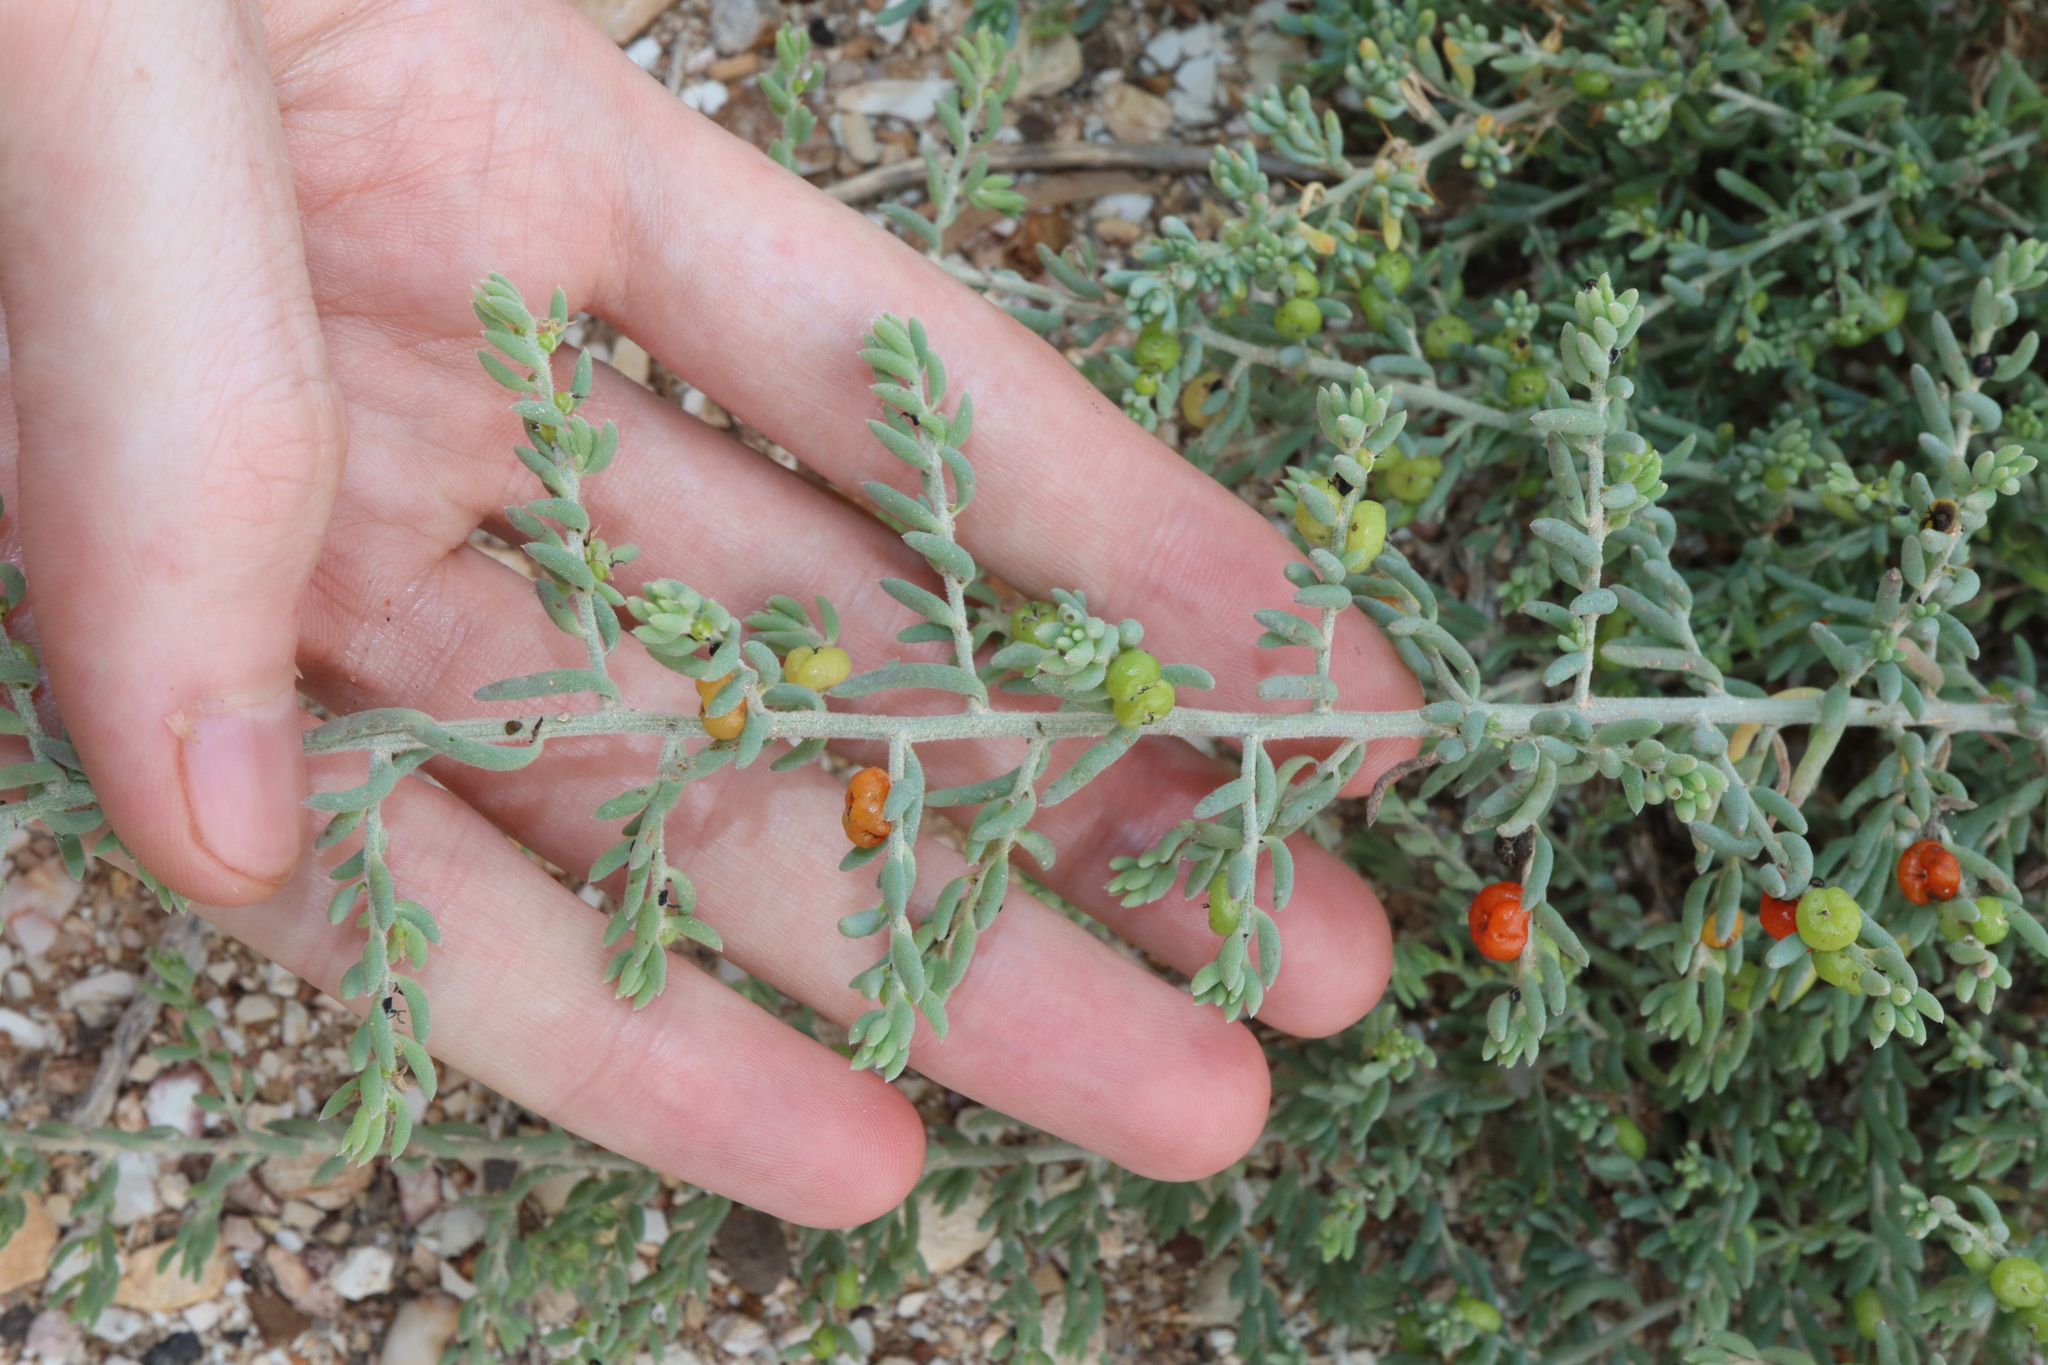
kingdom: Plantae
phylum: Tracheophyta
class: Magnoliopsida
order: Caryophyllales
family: Amaranthaceae
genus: Enchylaena
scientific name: Enchylaena tomentosa
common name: Ruby saltbush
